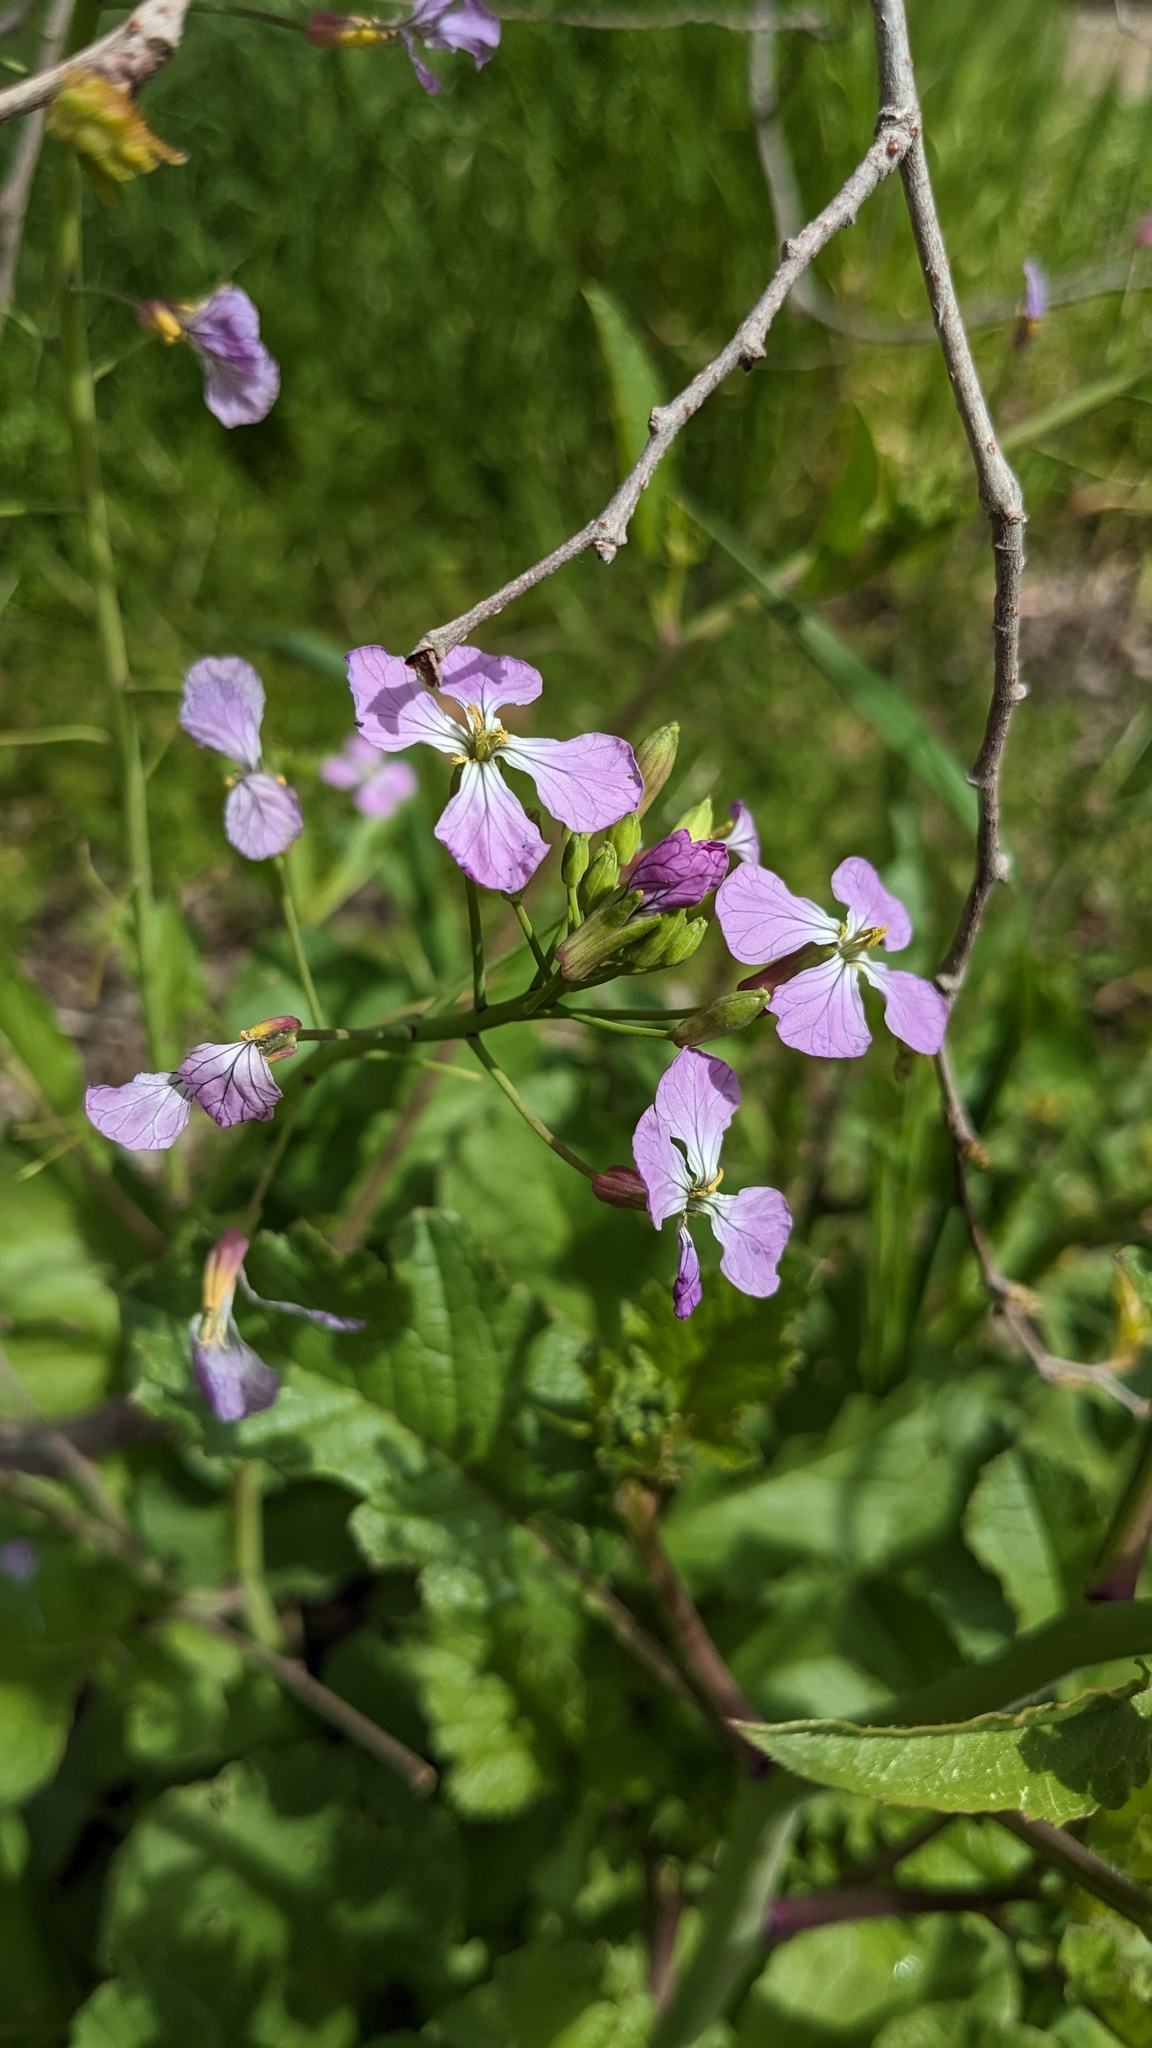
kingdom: Plantae
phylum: Tracheophyta
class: Magnoliopsida
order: Brassicales
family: Brassicaceae
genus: Raphanus
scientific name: Raphanus sativus
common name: Cultivated radish
